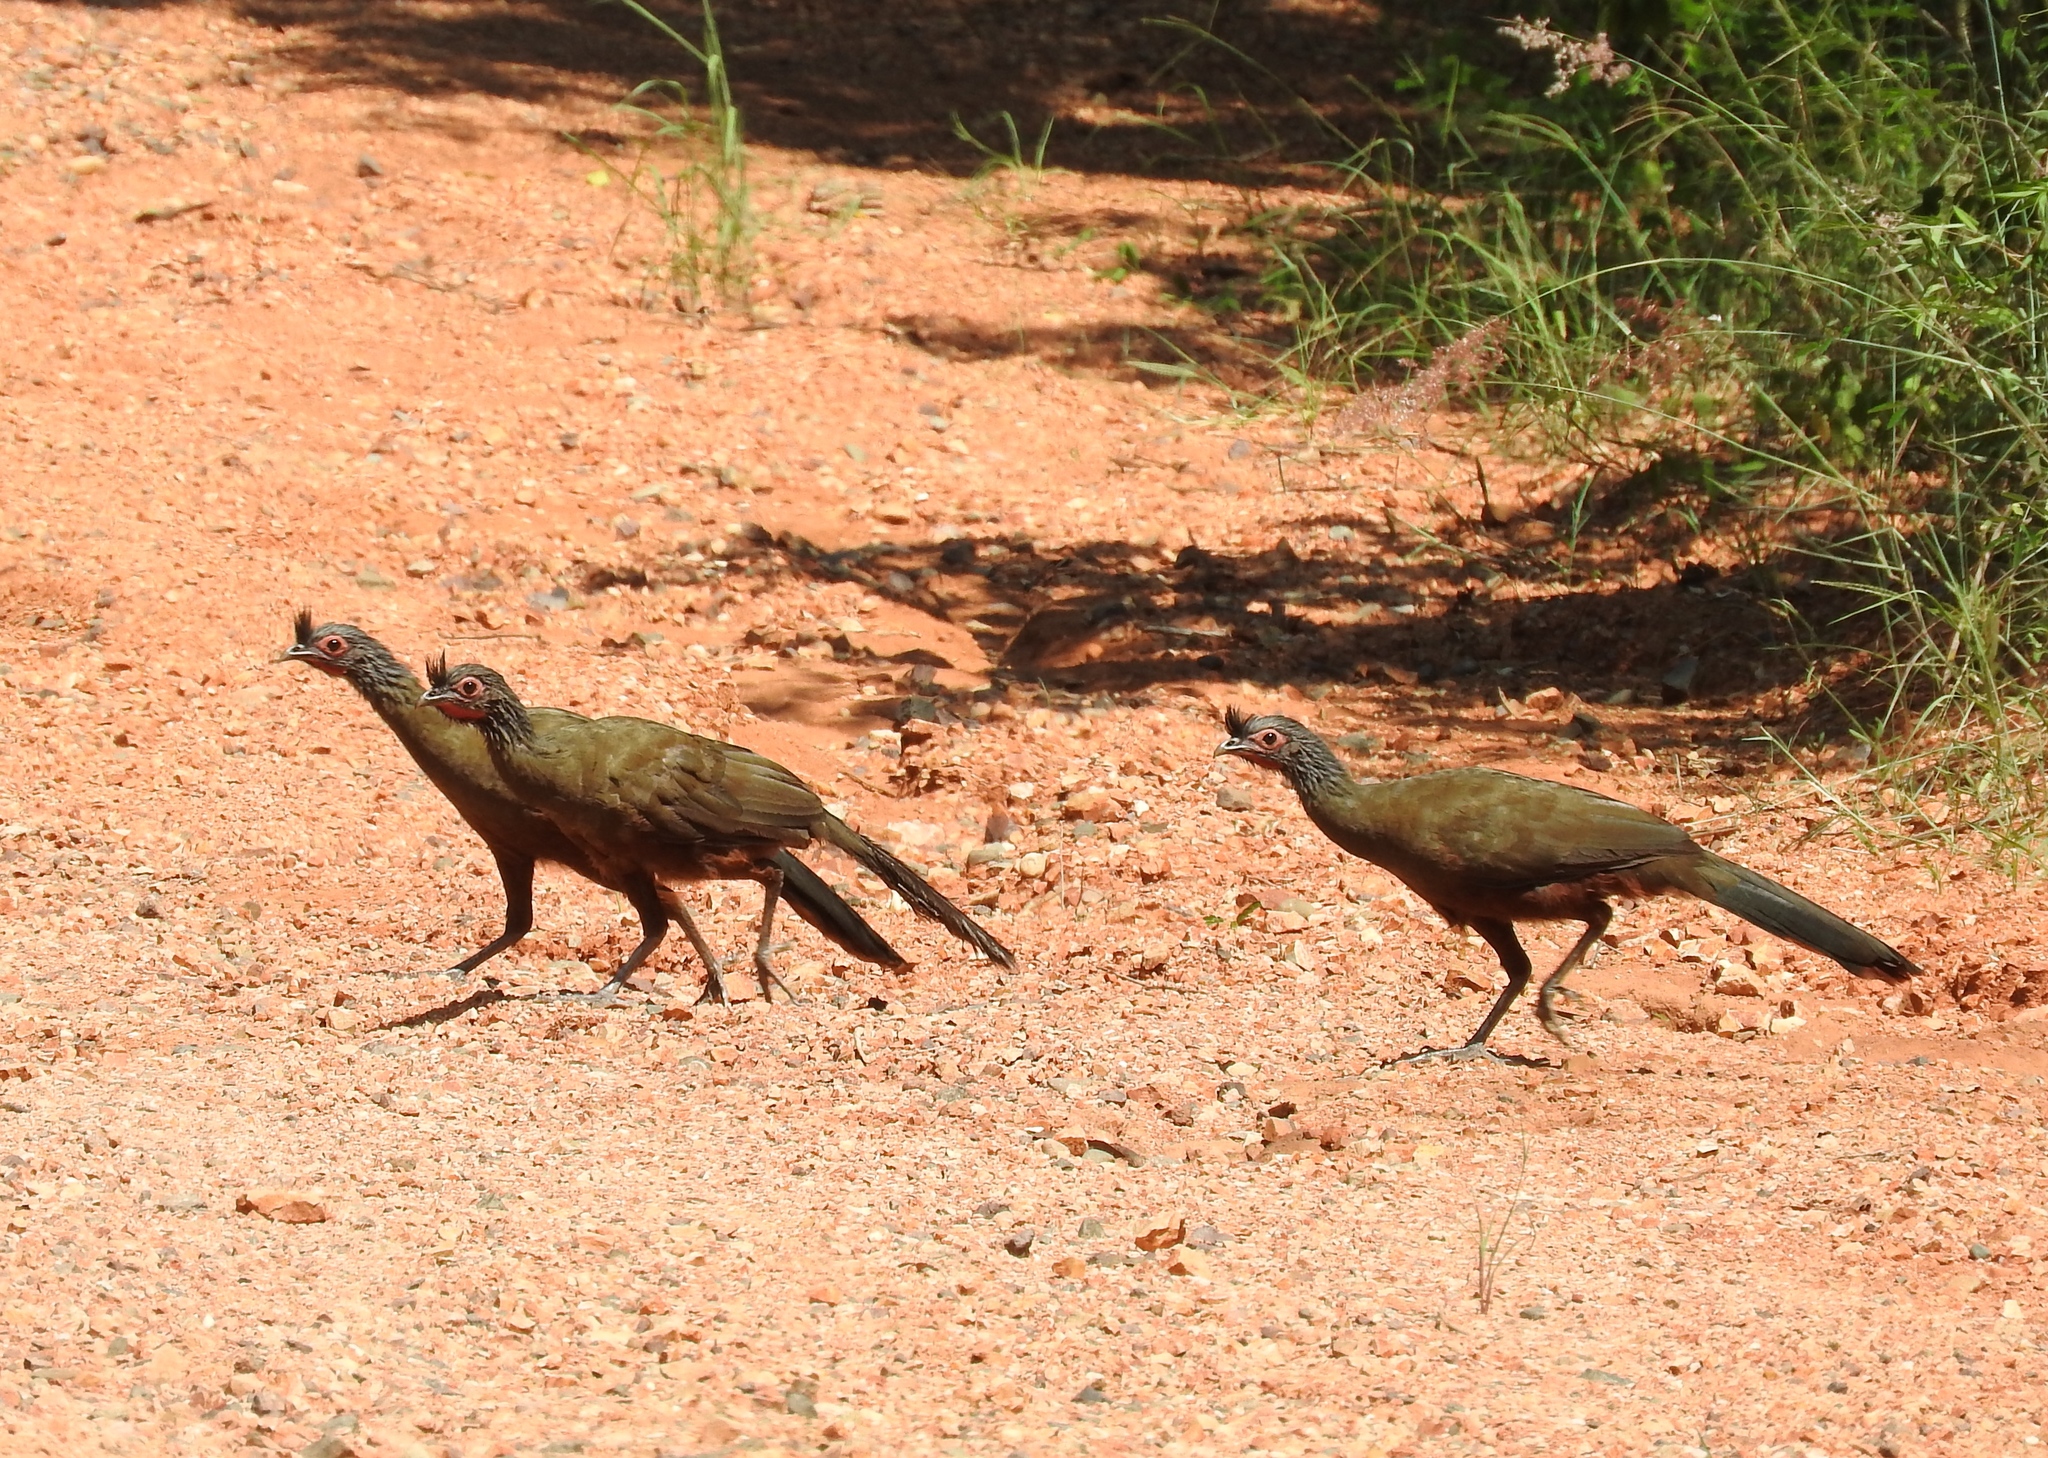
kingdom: Animalia
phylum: Chordata
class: Aves
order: Galliformes
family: Cracidae
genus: Ortalis
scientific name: Ortalis wagleri
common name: Rufous-bellied chachalaca
